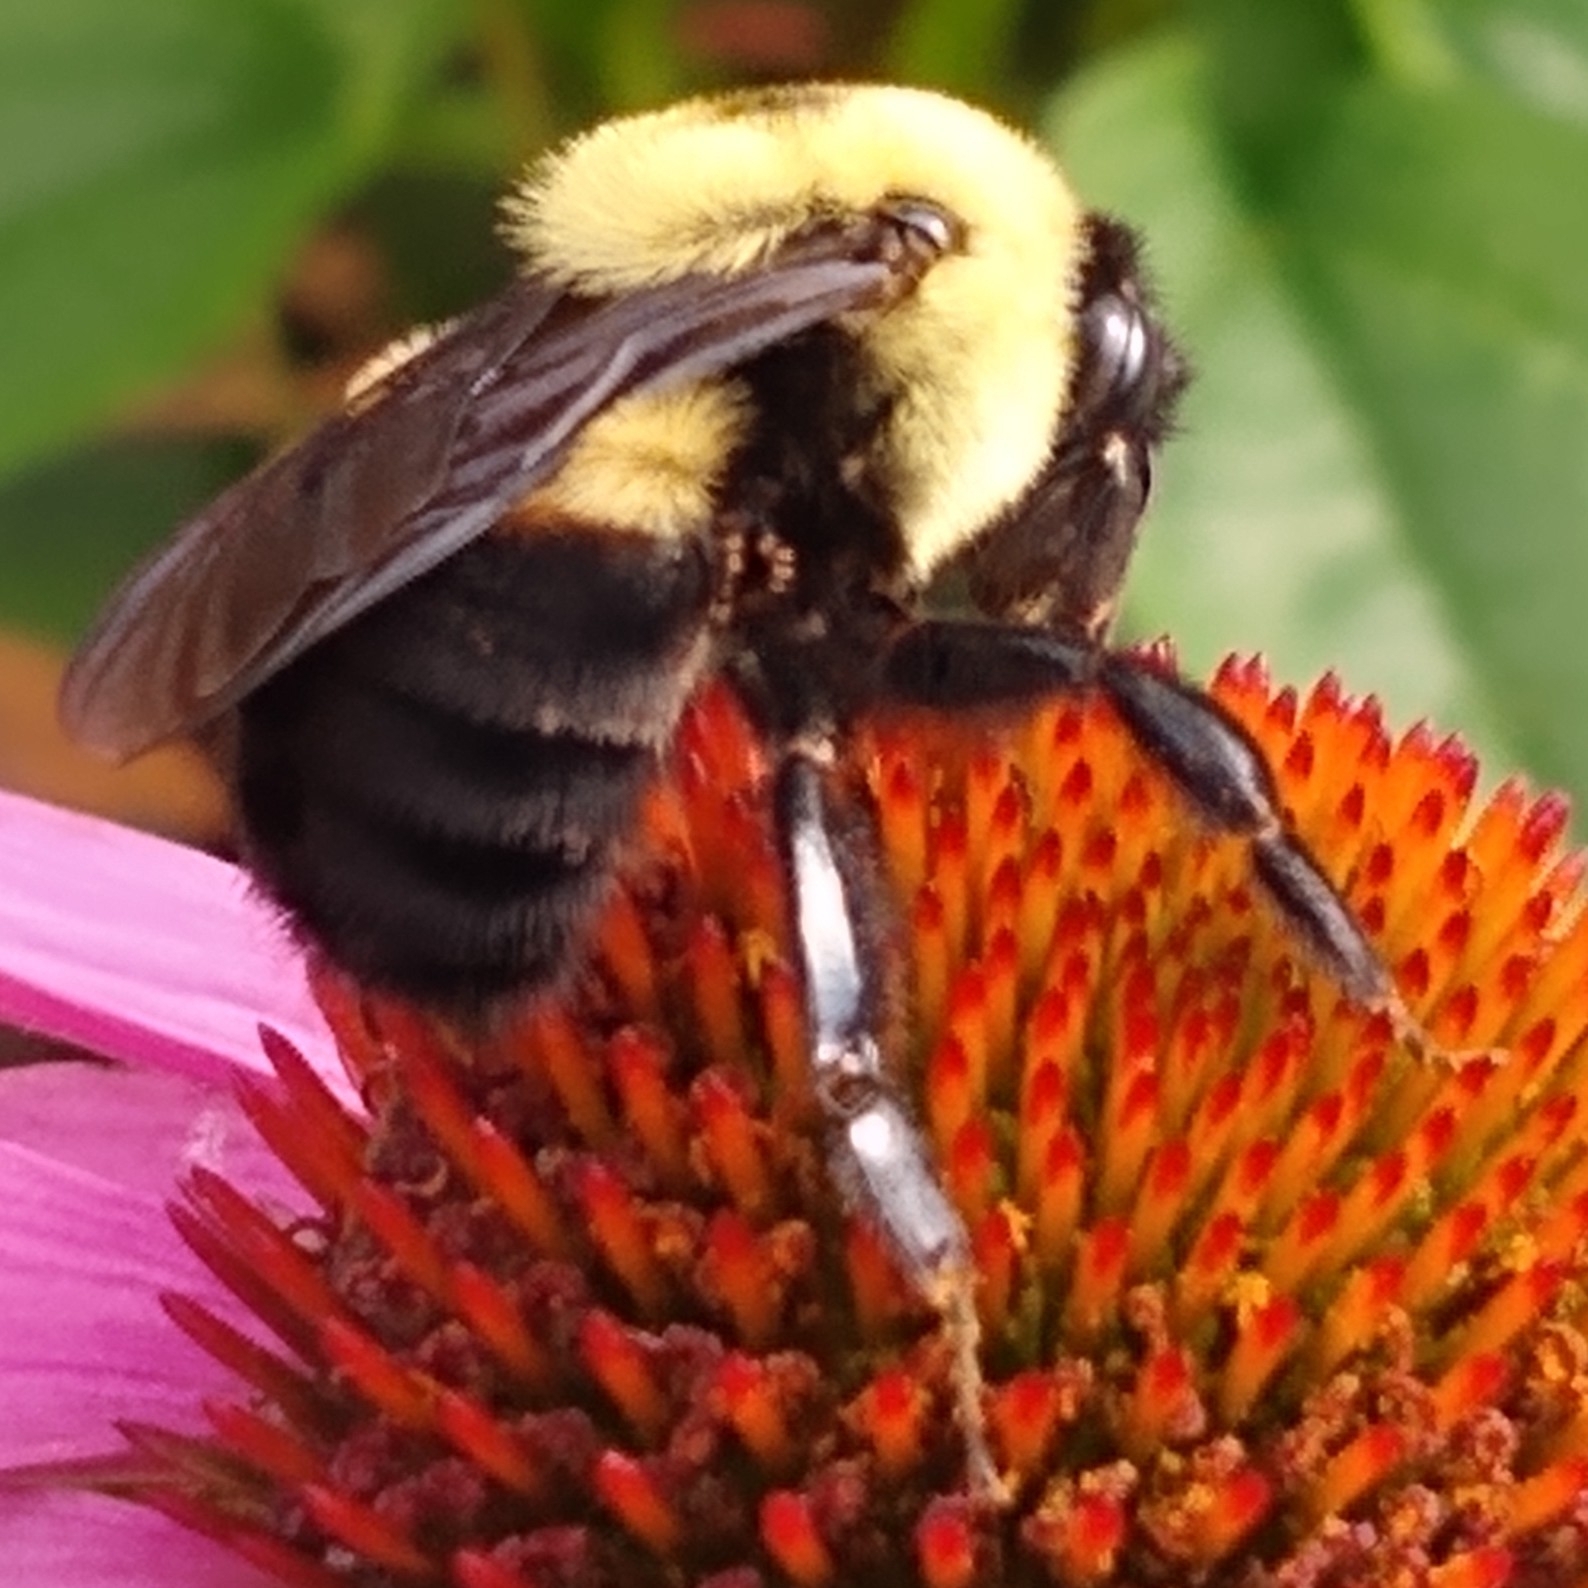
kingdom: Animalia
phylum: Arthropoda
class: Insecta
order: Hymenoptera
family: Apidae
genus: Bombus
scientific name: Bombus griseocollis
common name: Brown-belted bumble bee
